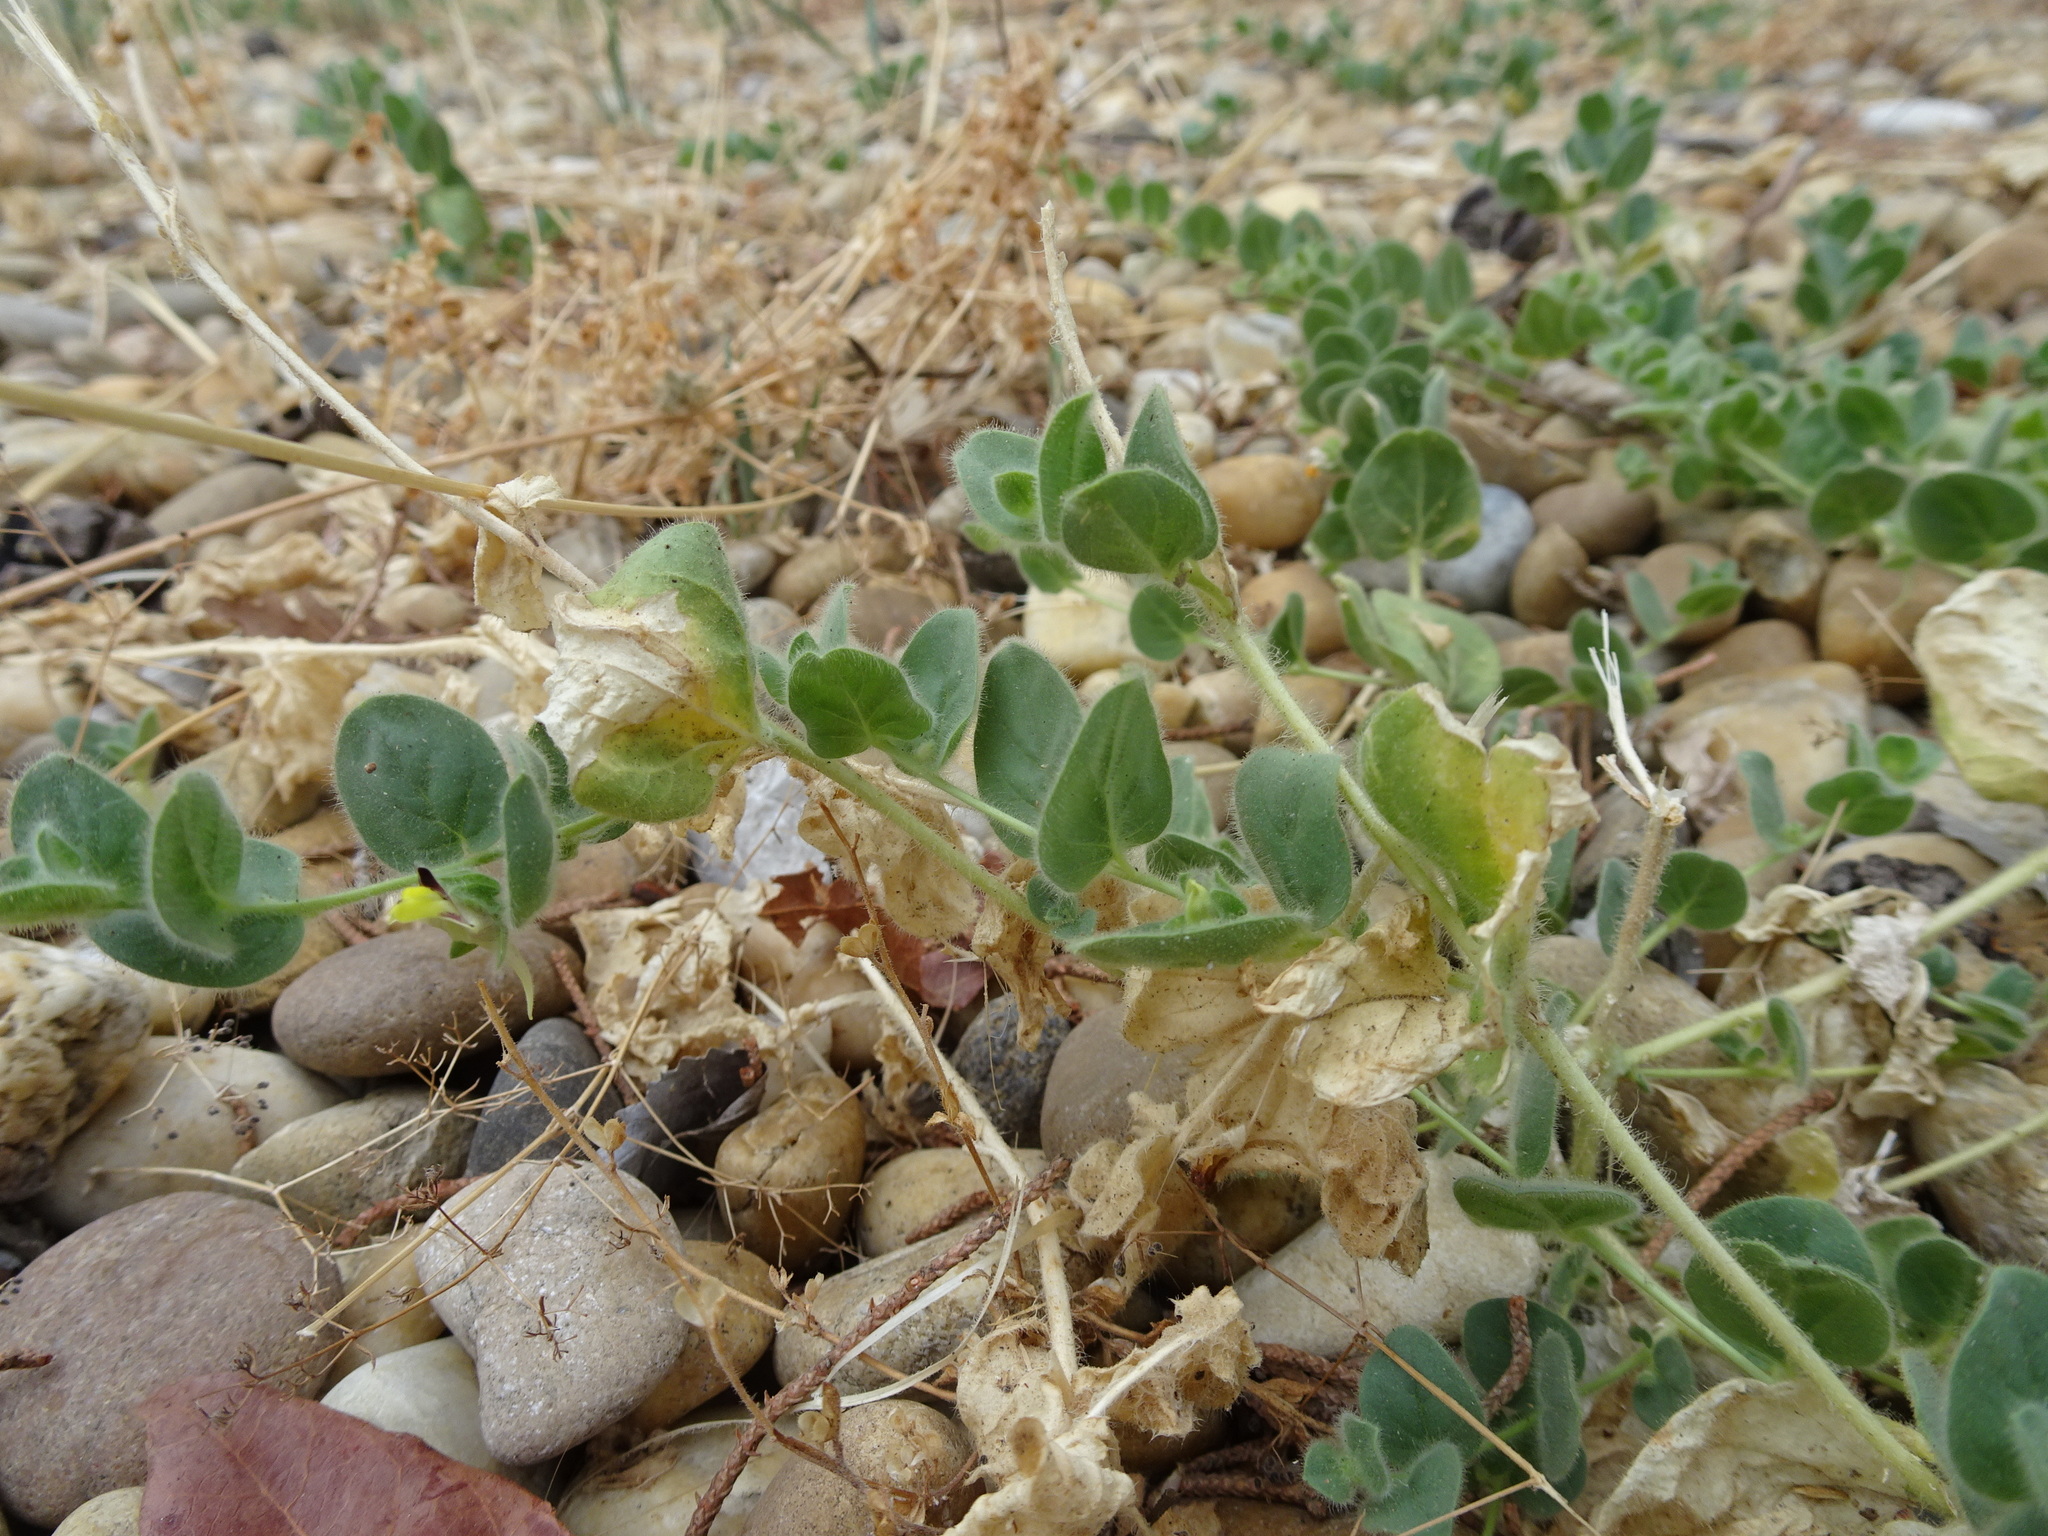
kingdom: Plantae
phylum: Tracheophyta
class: Magnoliopsida
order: Lamiales
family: Plantaginaceae
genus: Kickxia
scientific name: Kickxia spuria
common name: Round-leaved fluellen
